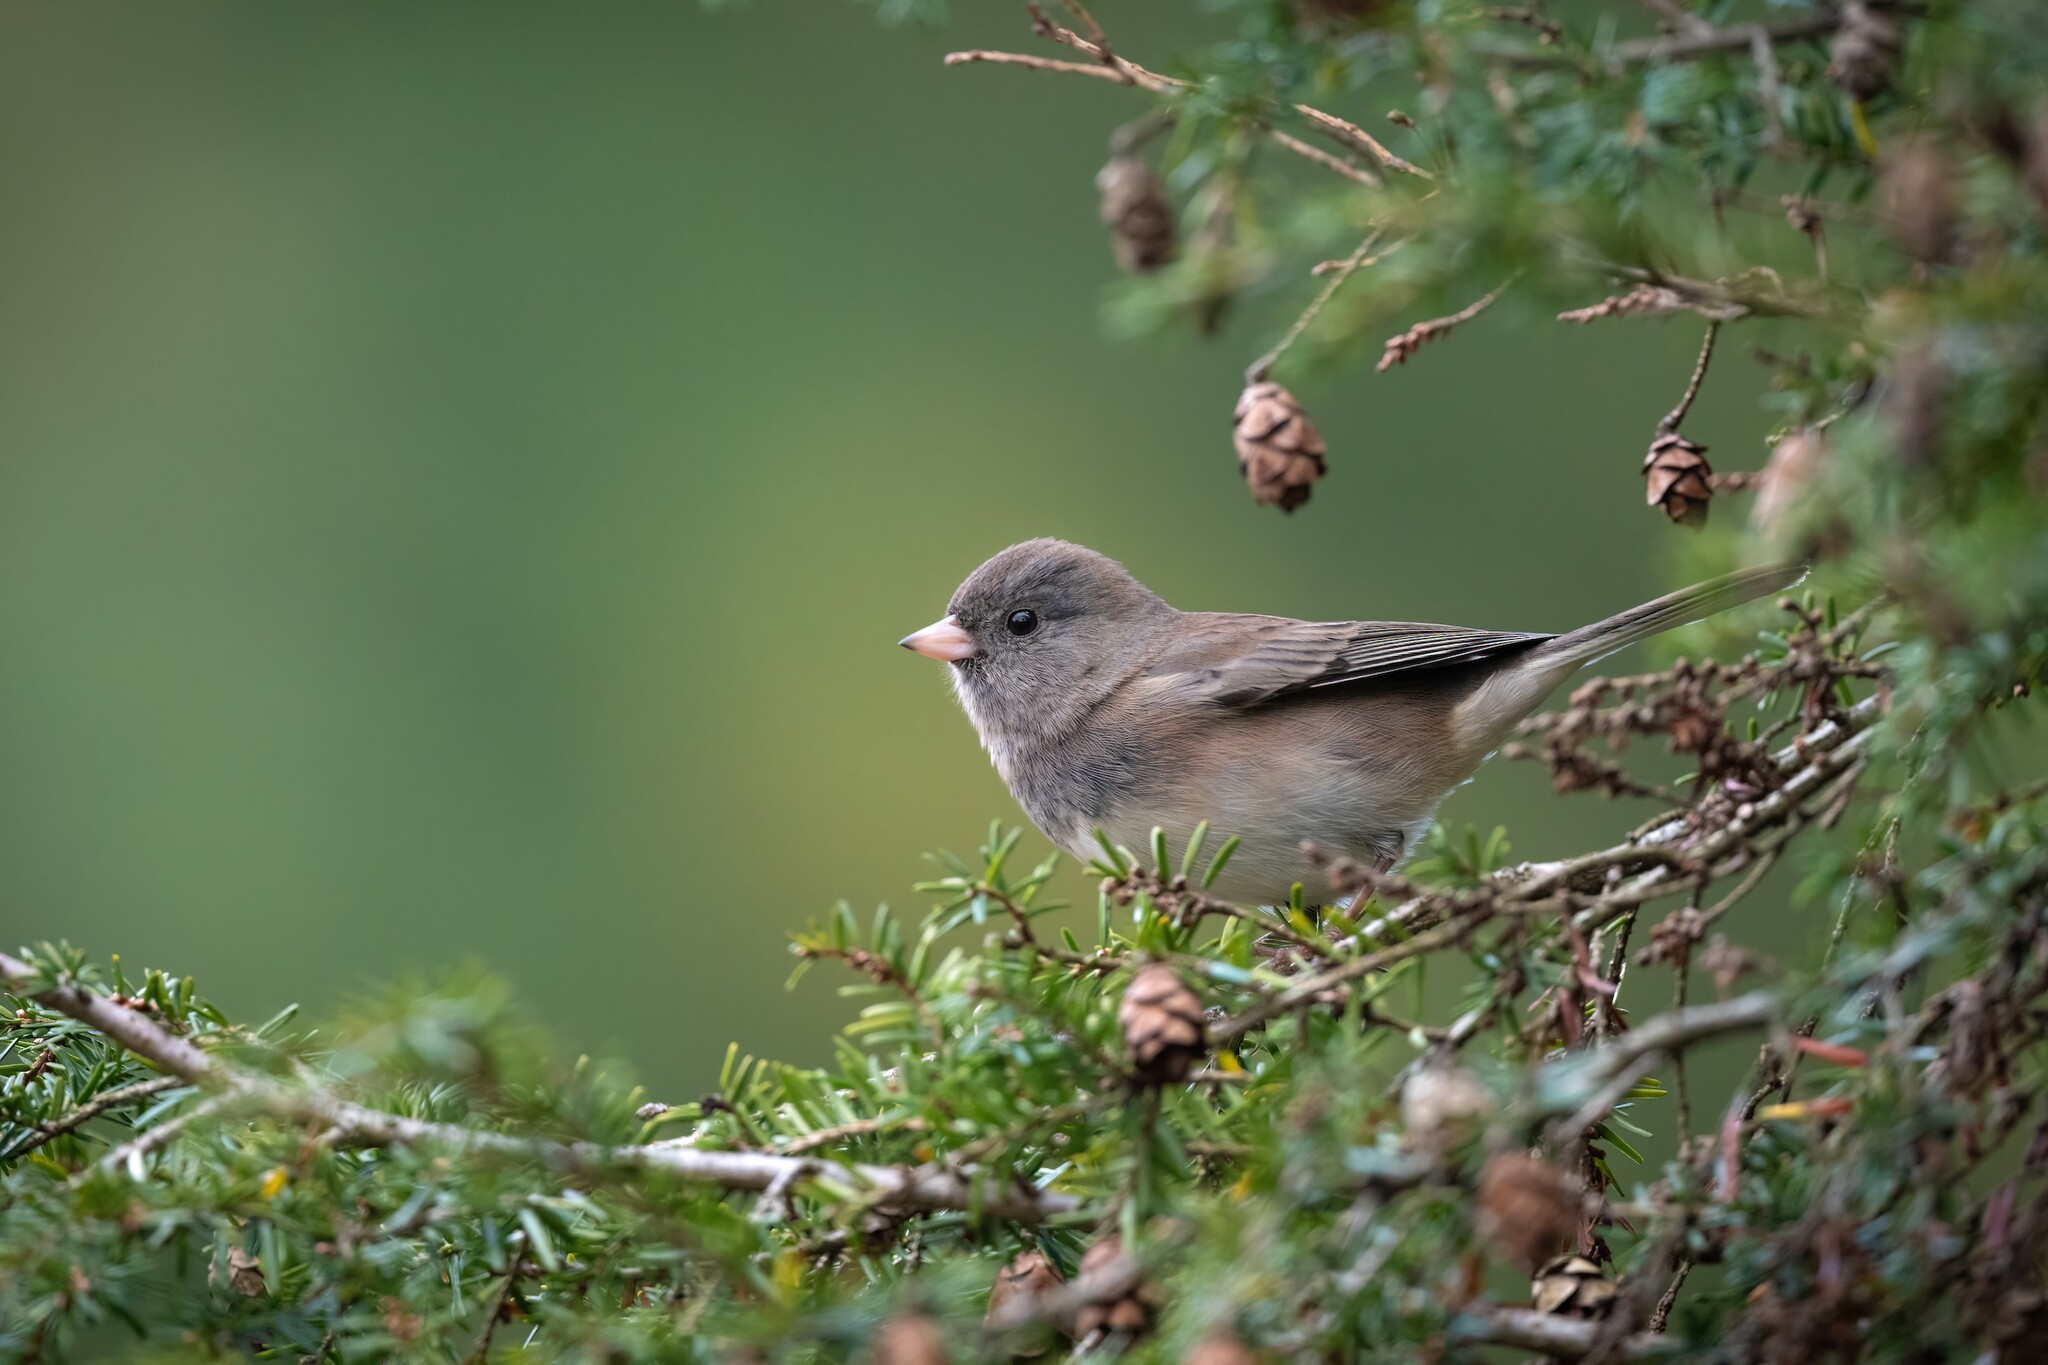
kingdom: Animalia
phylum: Chordata
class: Aves
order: Passeriformes
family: Passerellidae
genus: Junco
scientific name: Junco hyemalis
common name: Dark-eyed junco
